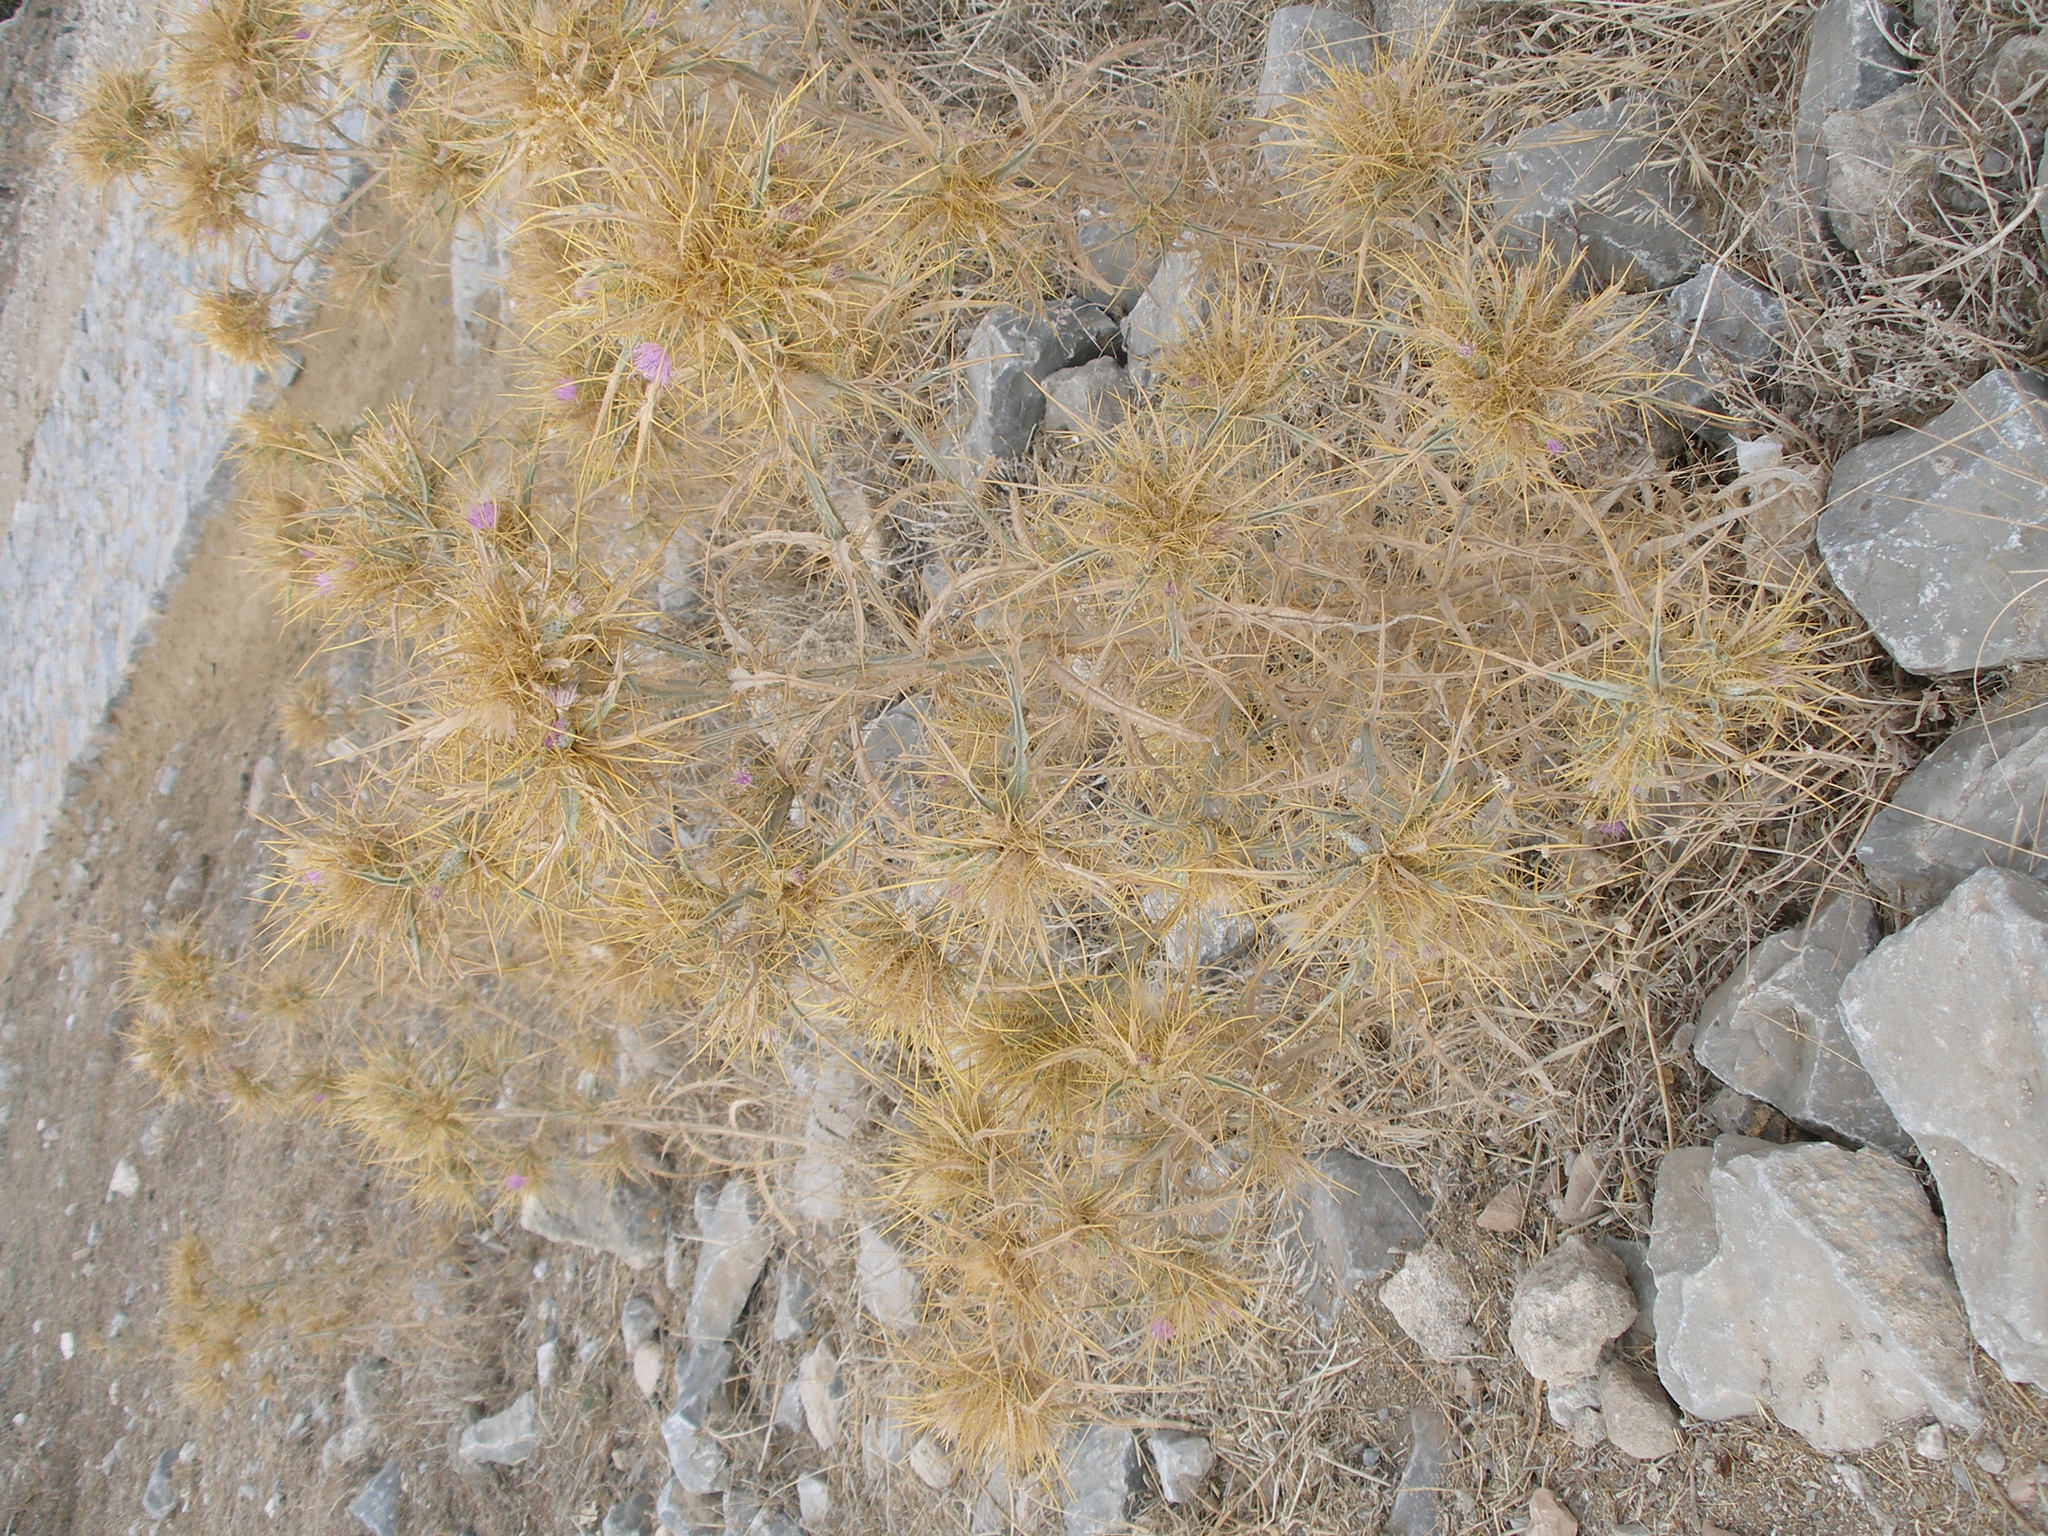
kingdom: Plantae
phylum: Tracheophyta
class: Magnoliopsida
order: Asterales
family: Asteraceae
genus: Picnomon
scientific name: Picnomon acarna
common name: Soldier thistle
